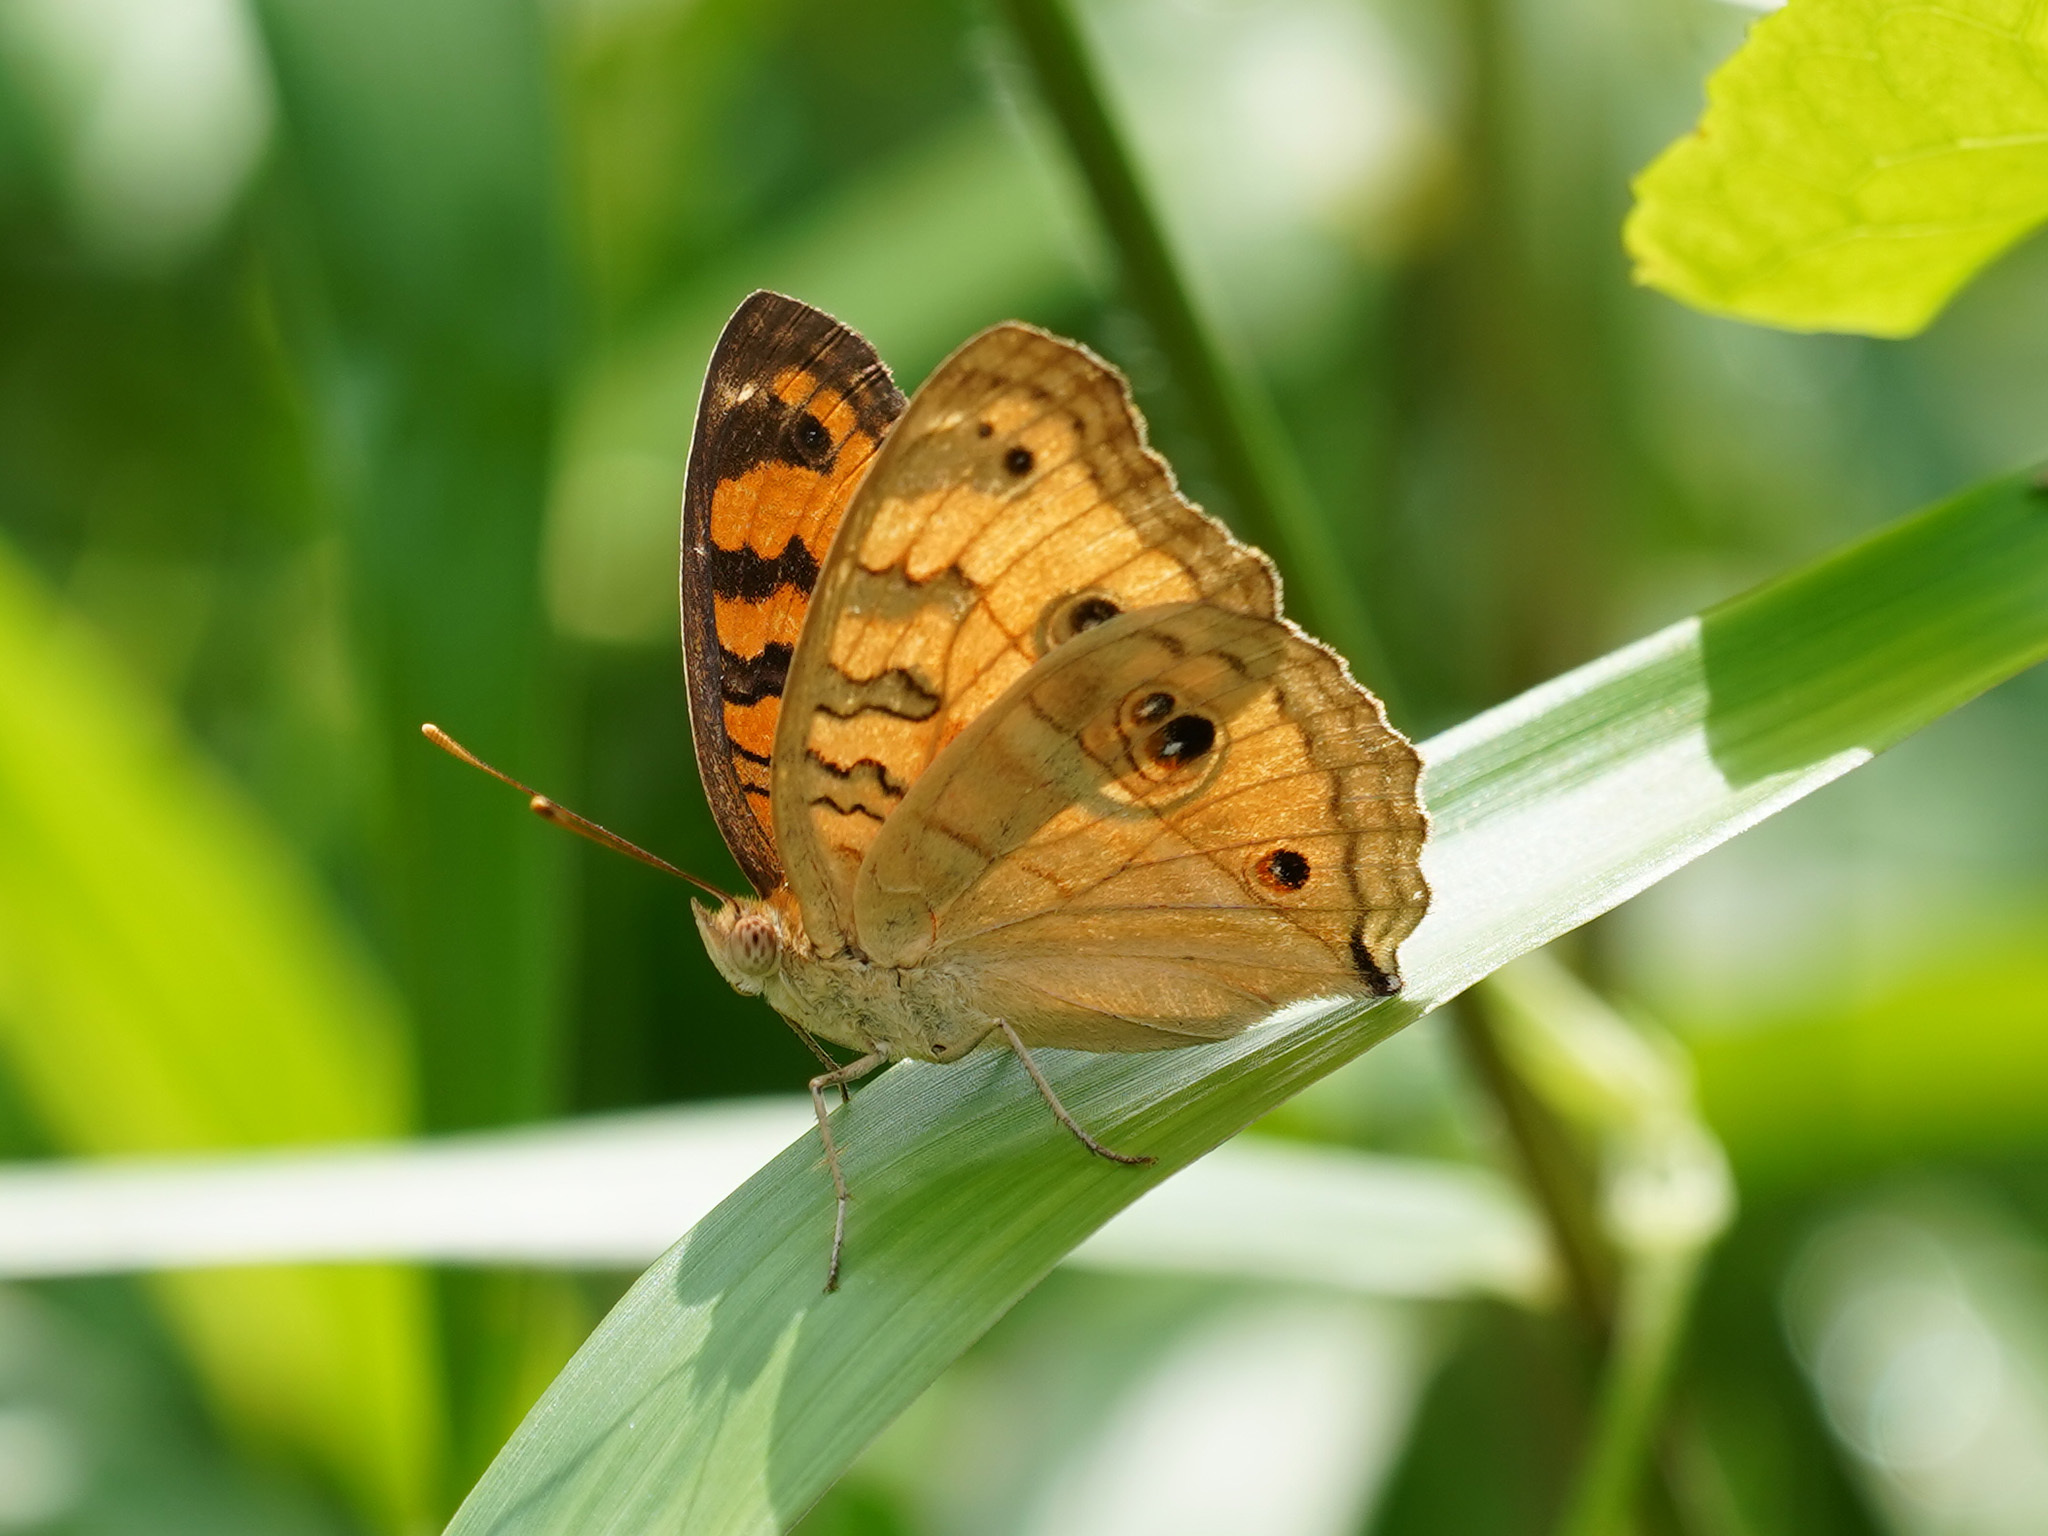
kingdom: Animalia
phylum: Arthropoda
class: Insecta
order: Lepidoptera
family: Nymphalidae
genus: Junonia
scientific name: Junonia almana
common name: Peacock pansy
